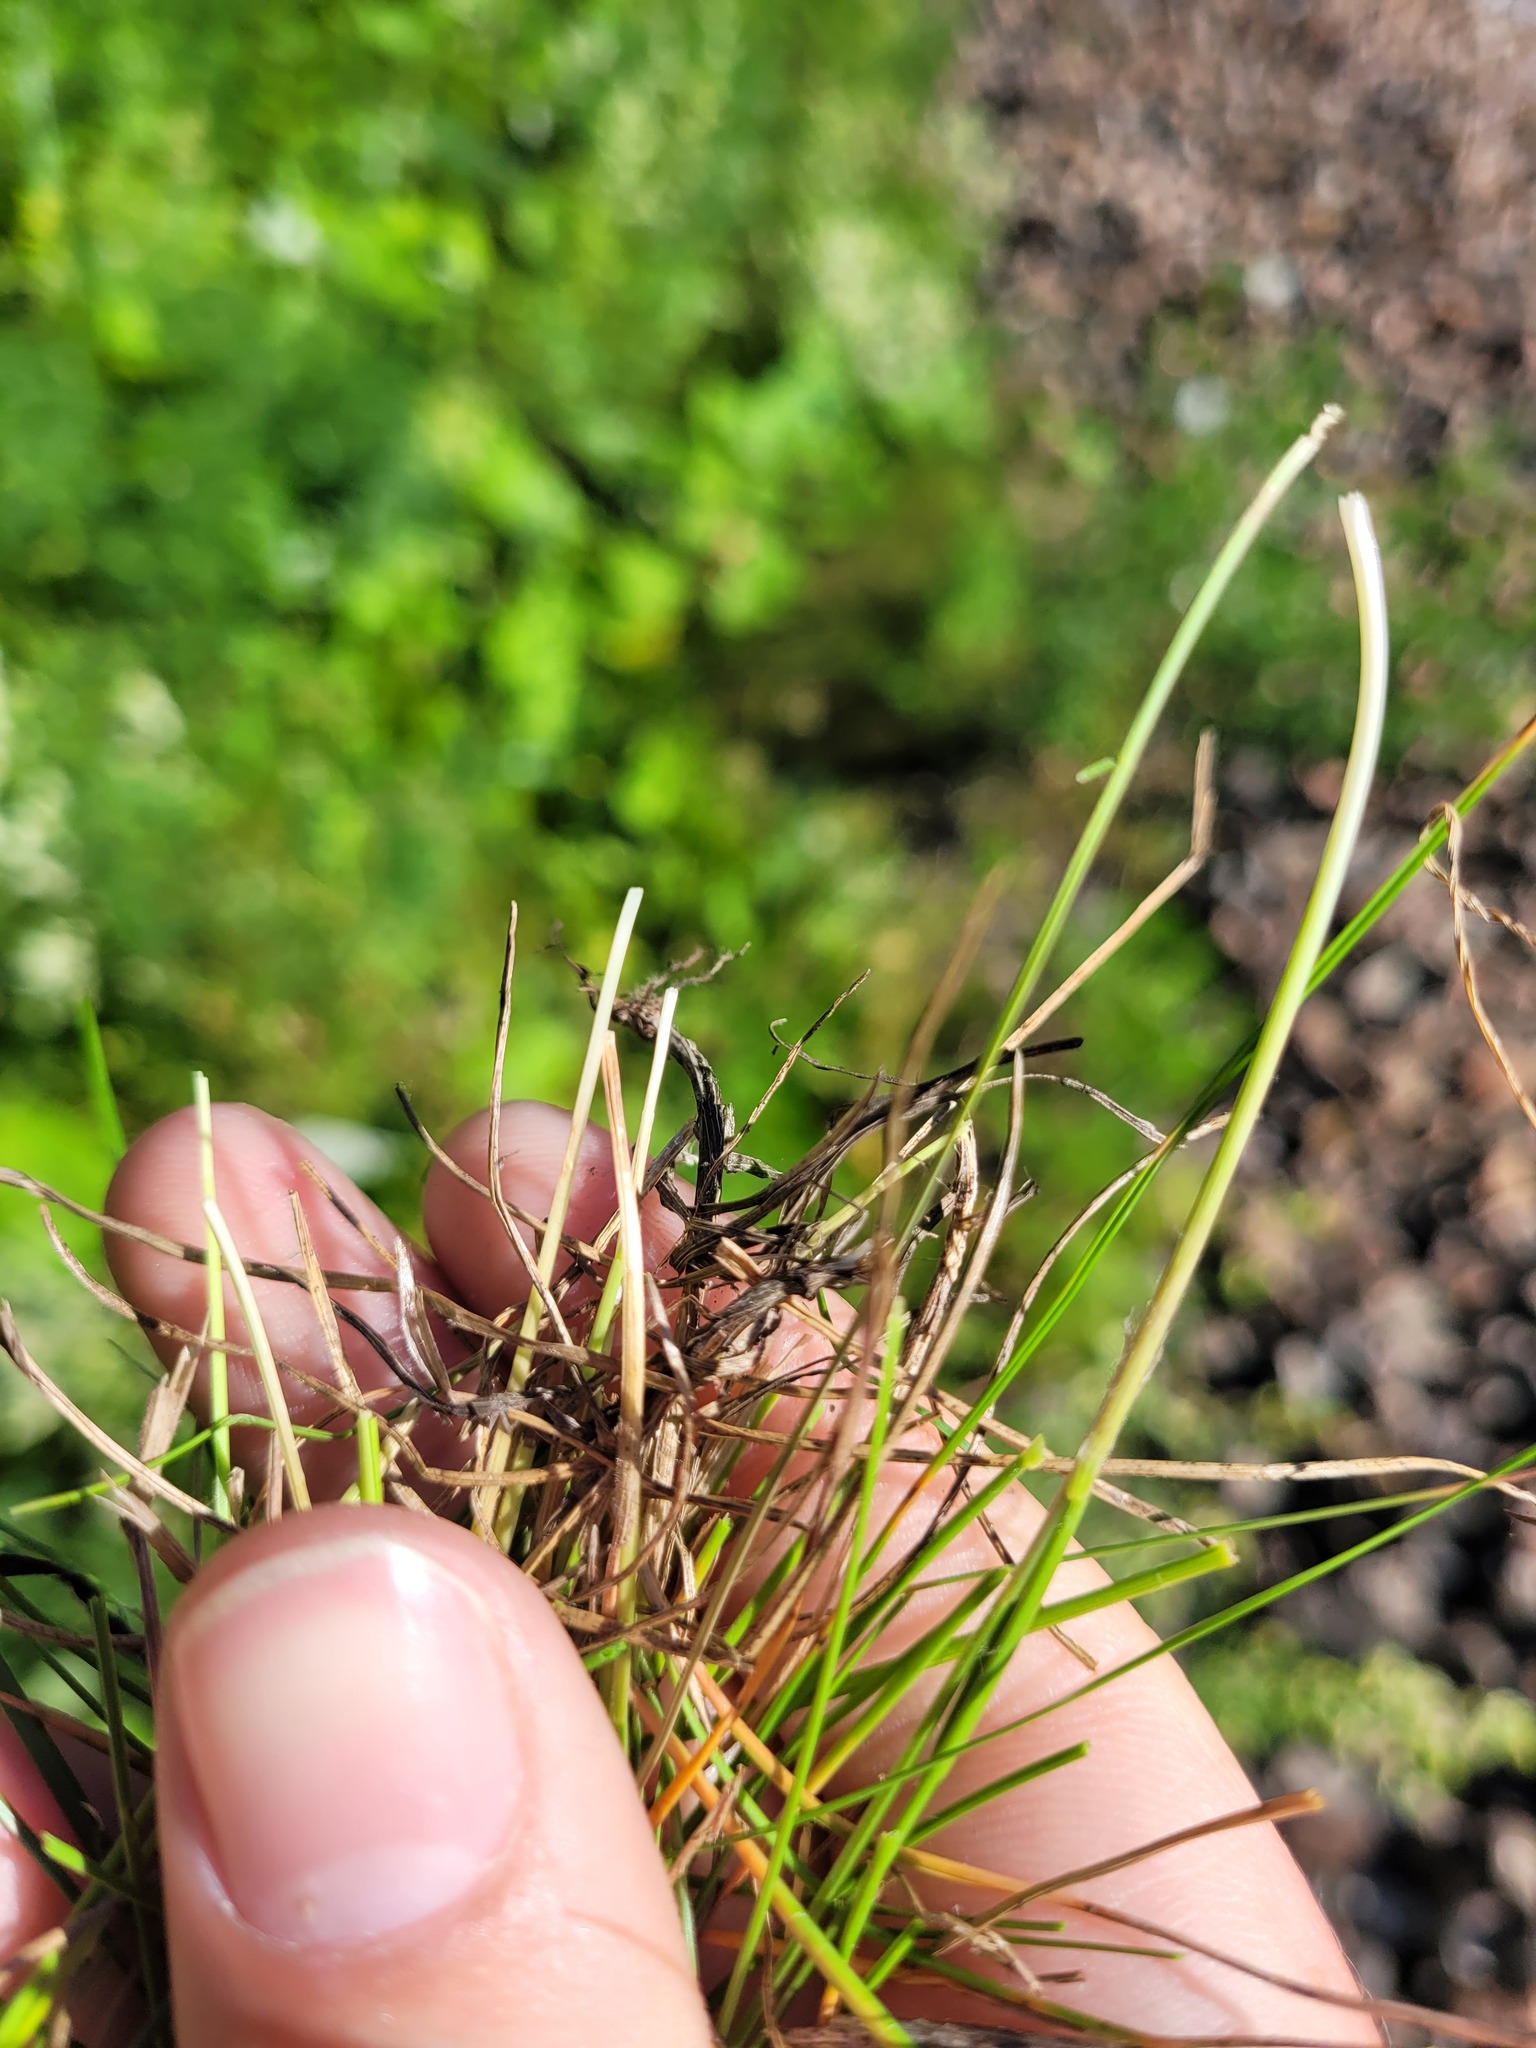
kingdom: Plantae
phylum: Tracheophyta
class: Liliopsida
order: Poales
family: Poaceae
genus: Festuca
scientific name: Festuca rubra
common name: Red fescue
